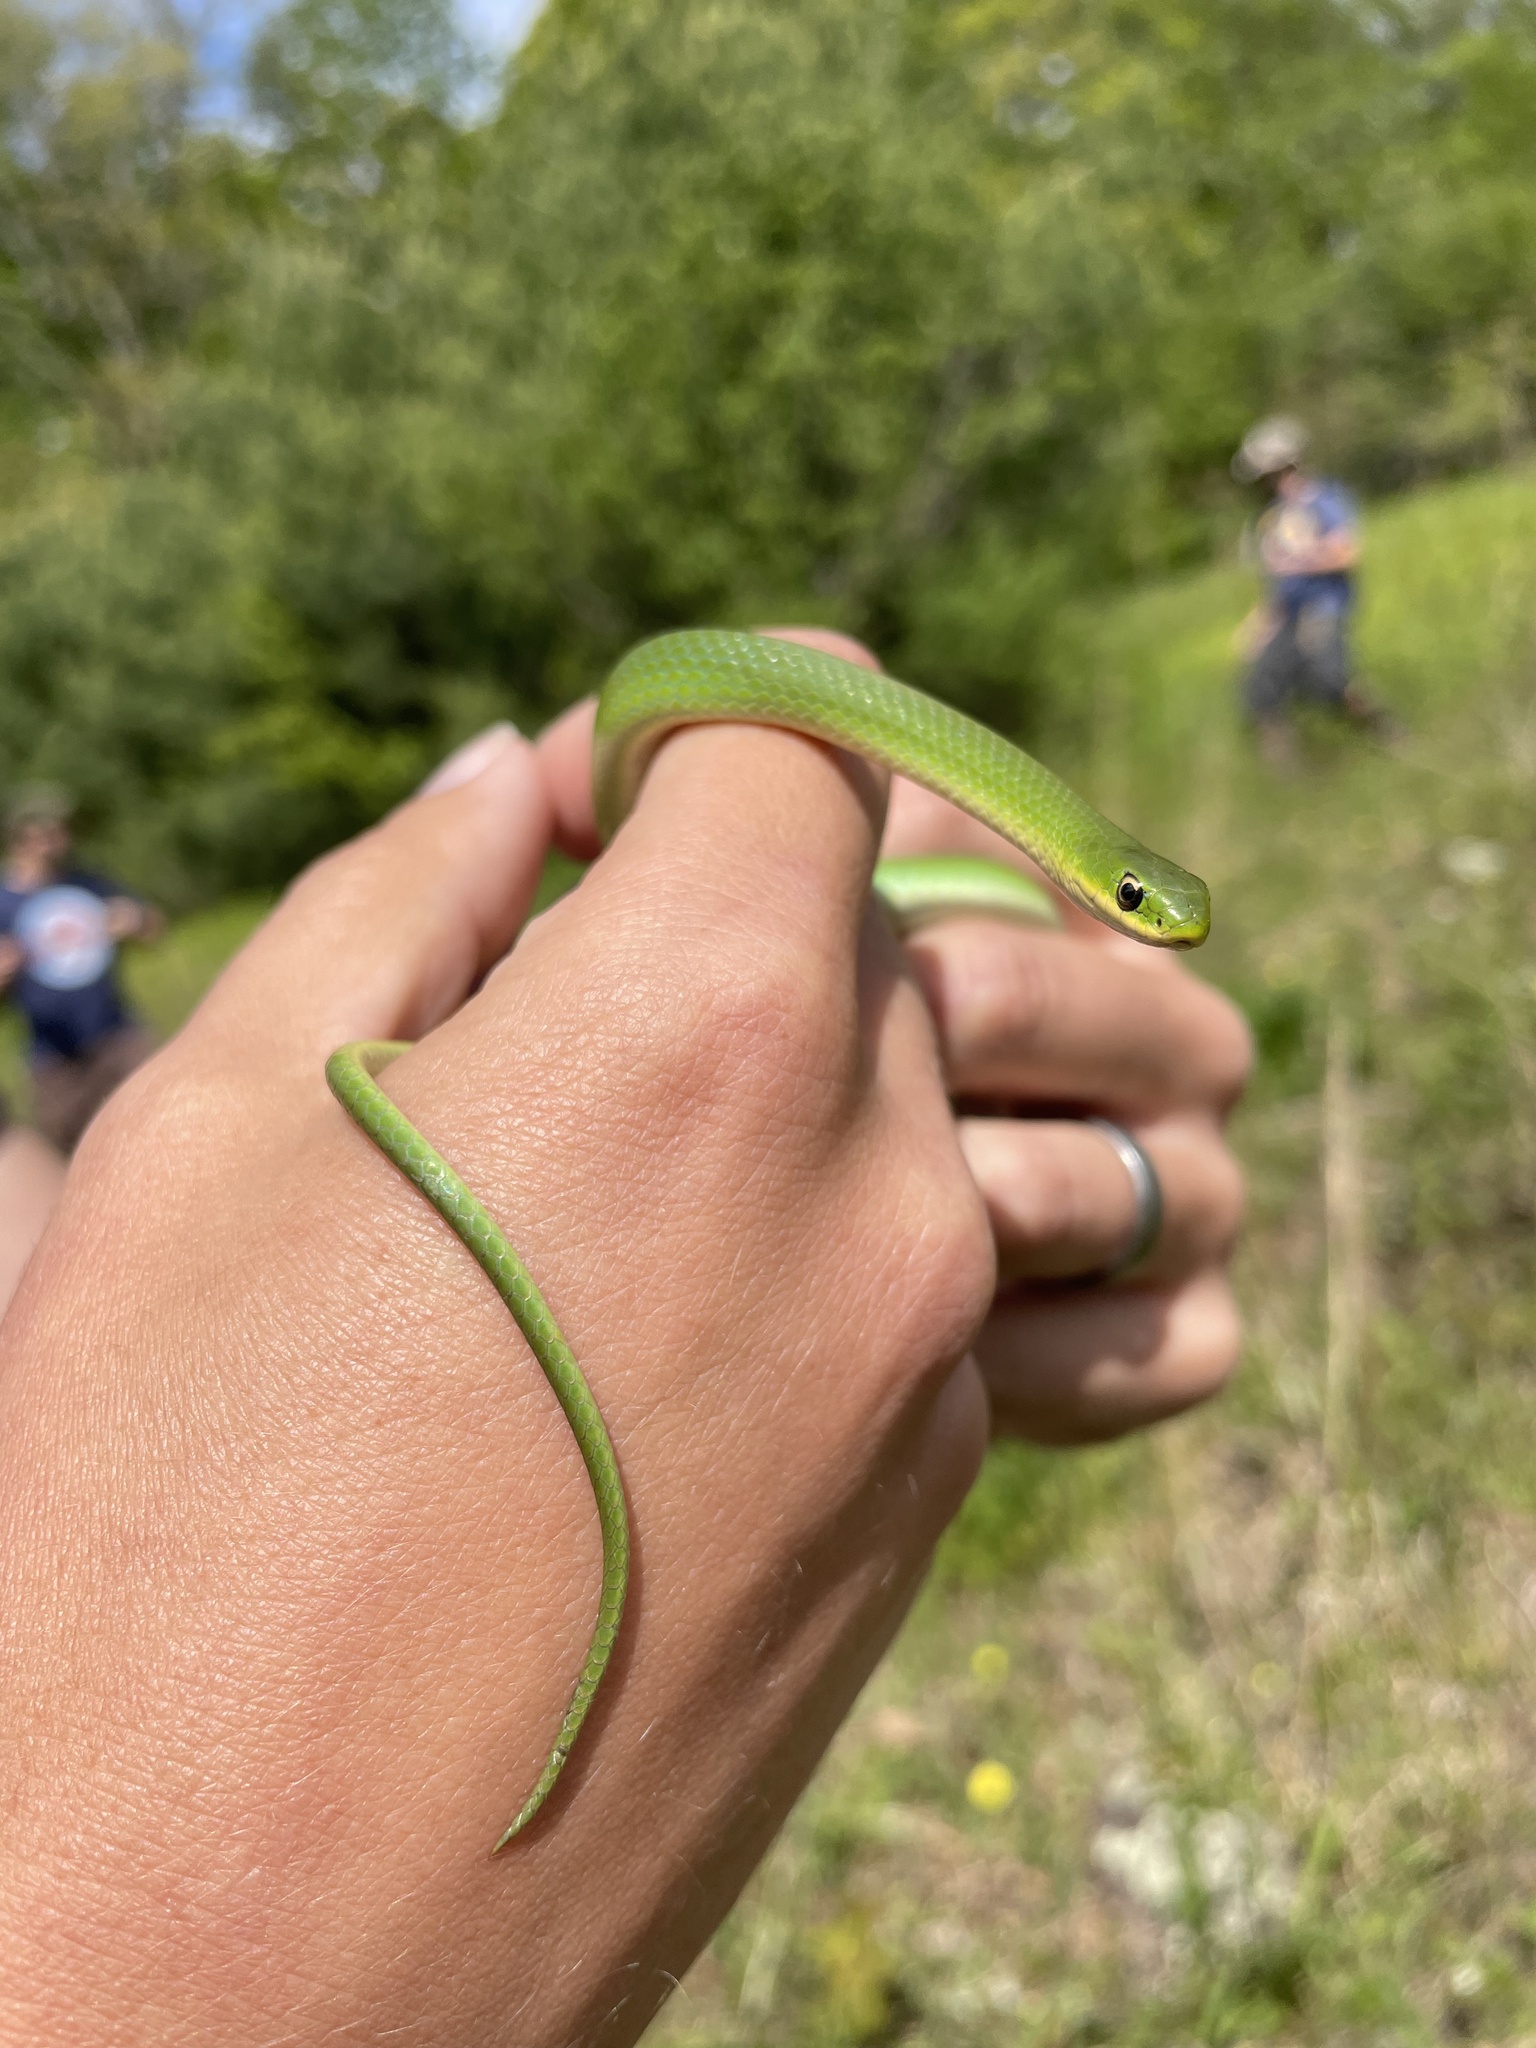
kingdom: Animalia
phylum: Chordata
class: Squamata
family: Colubridae
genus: Opheodrys
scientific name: Opheodrys vernalis
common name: Smooth green snake
